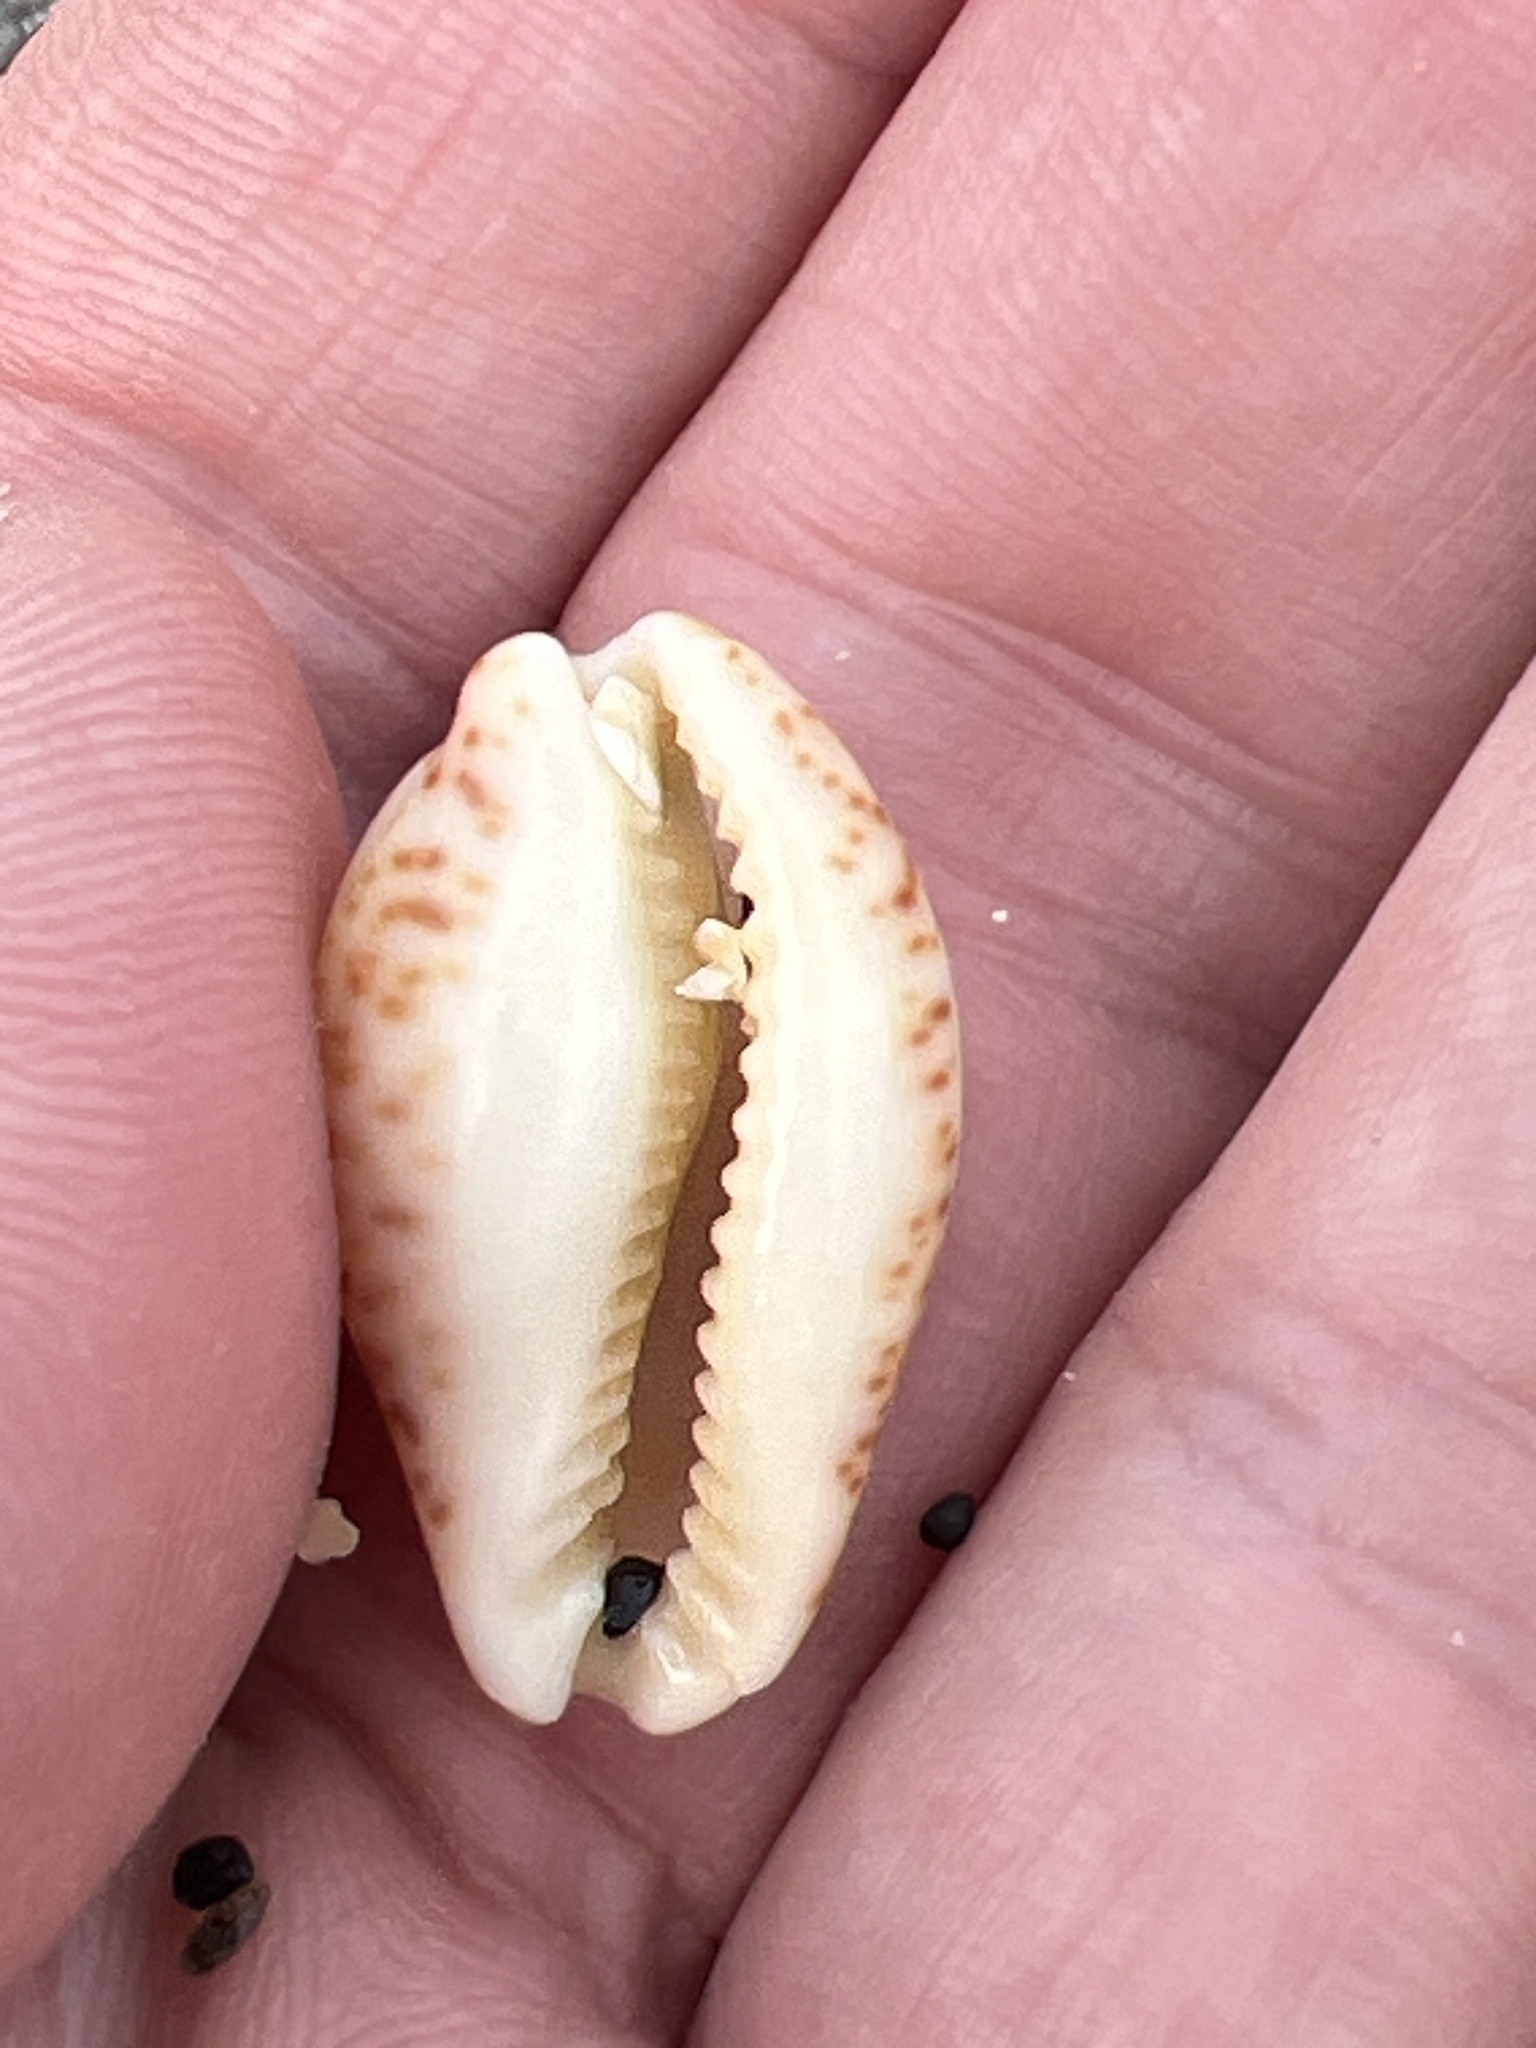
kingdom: Animalia
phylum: Mollusca
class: Gastropoda
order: Littorinimorpha
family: Cypraeidae
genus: Pseudozonaria
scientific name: Pseudozonaria nigropunctata
